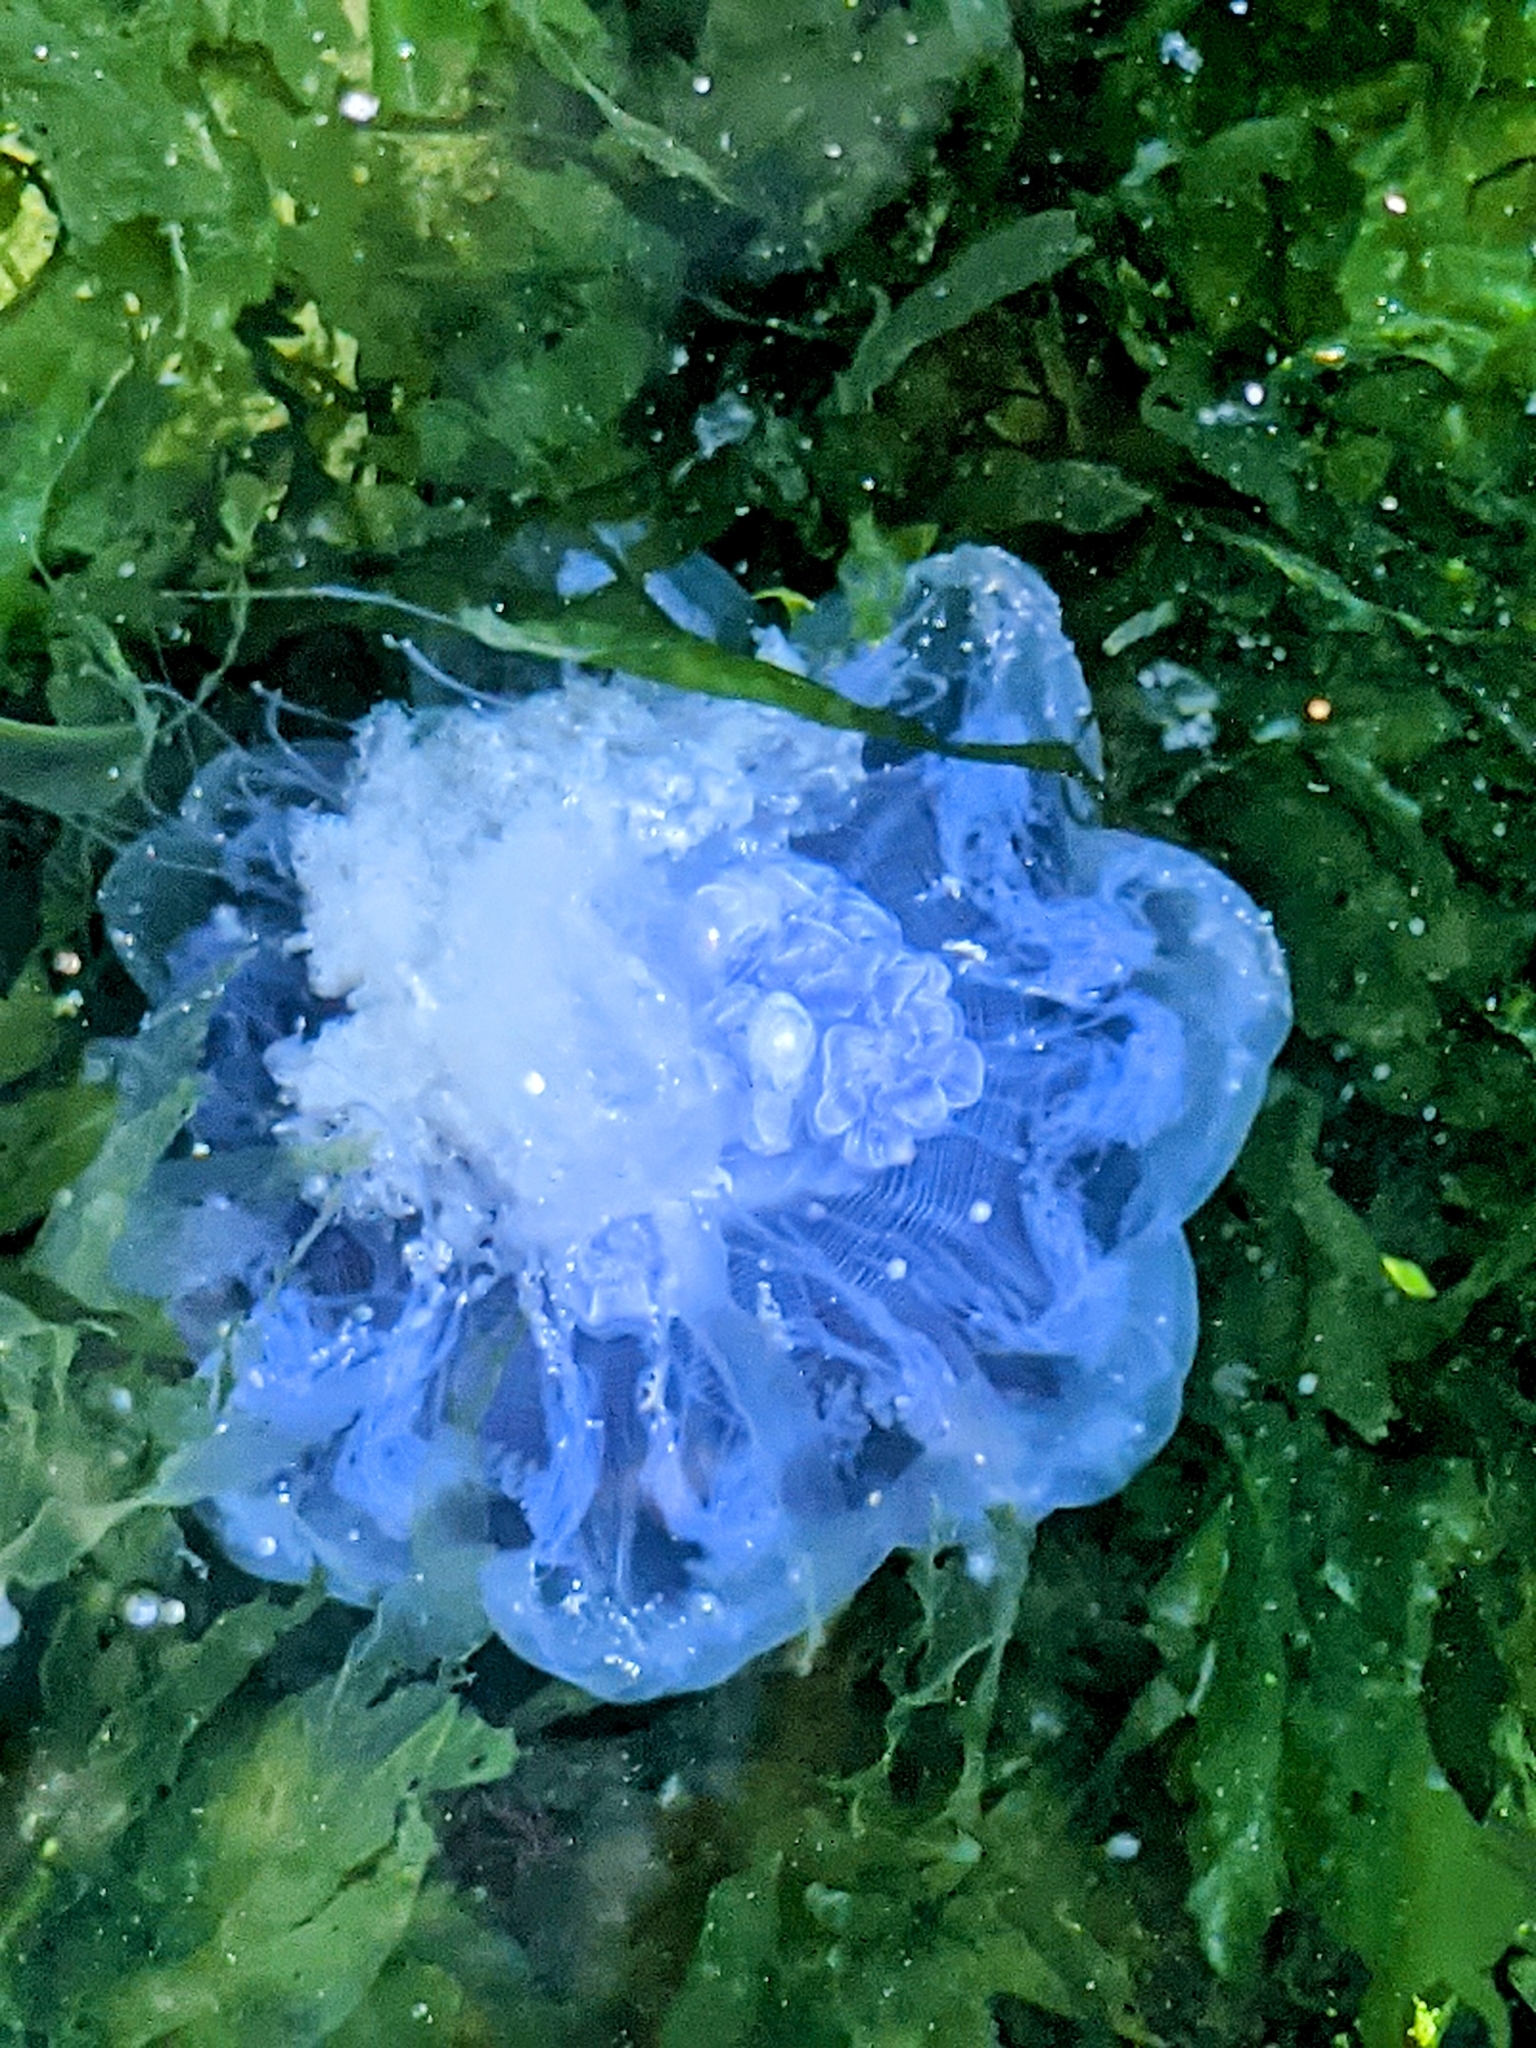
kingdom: Animalia
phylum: Cnidaria
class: Scyphozoa
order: Semaeostomeae
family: Cyaneidae
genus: Cyanea
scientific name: Cyanea lamarckii
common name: Blue jellyfish
